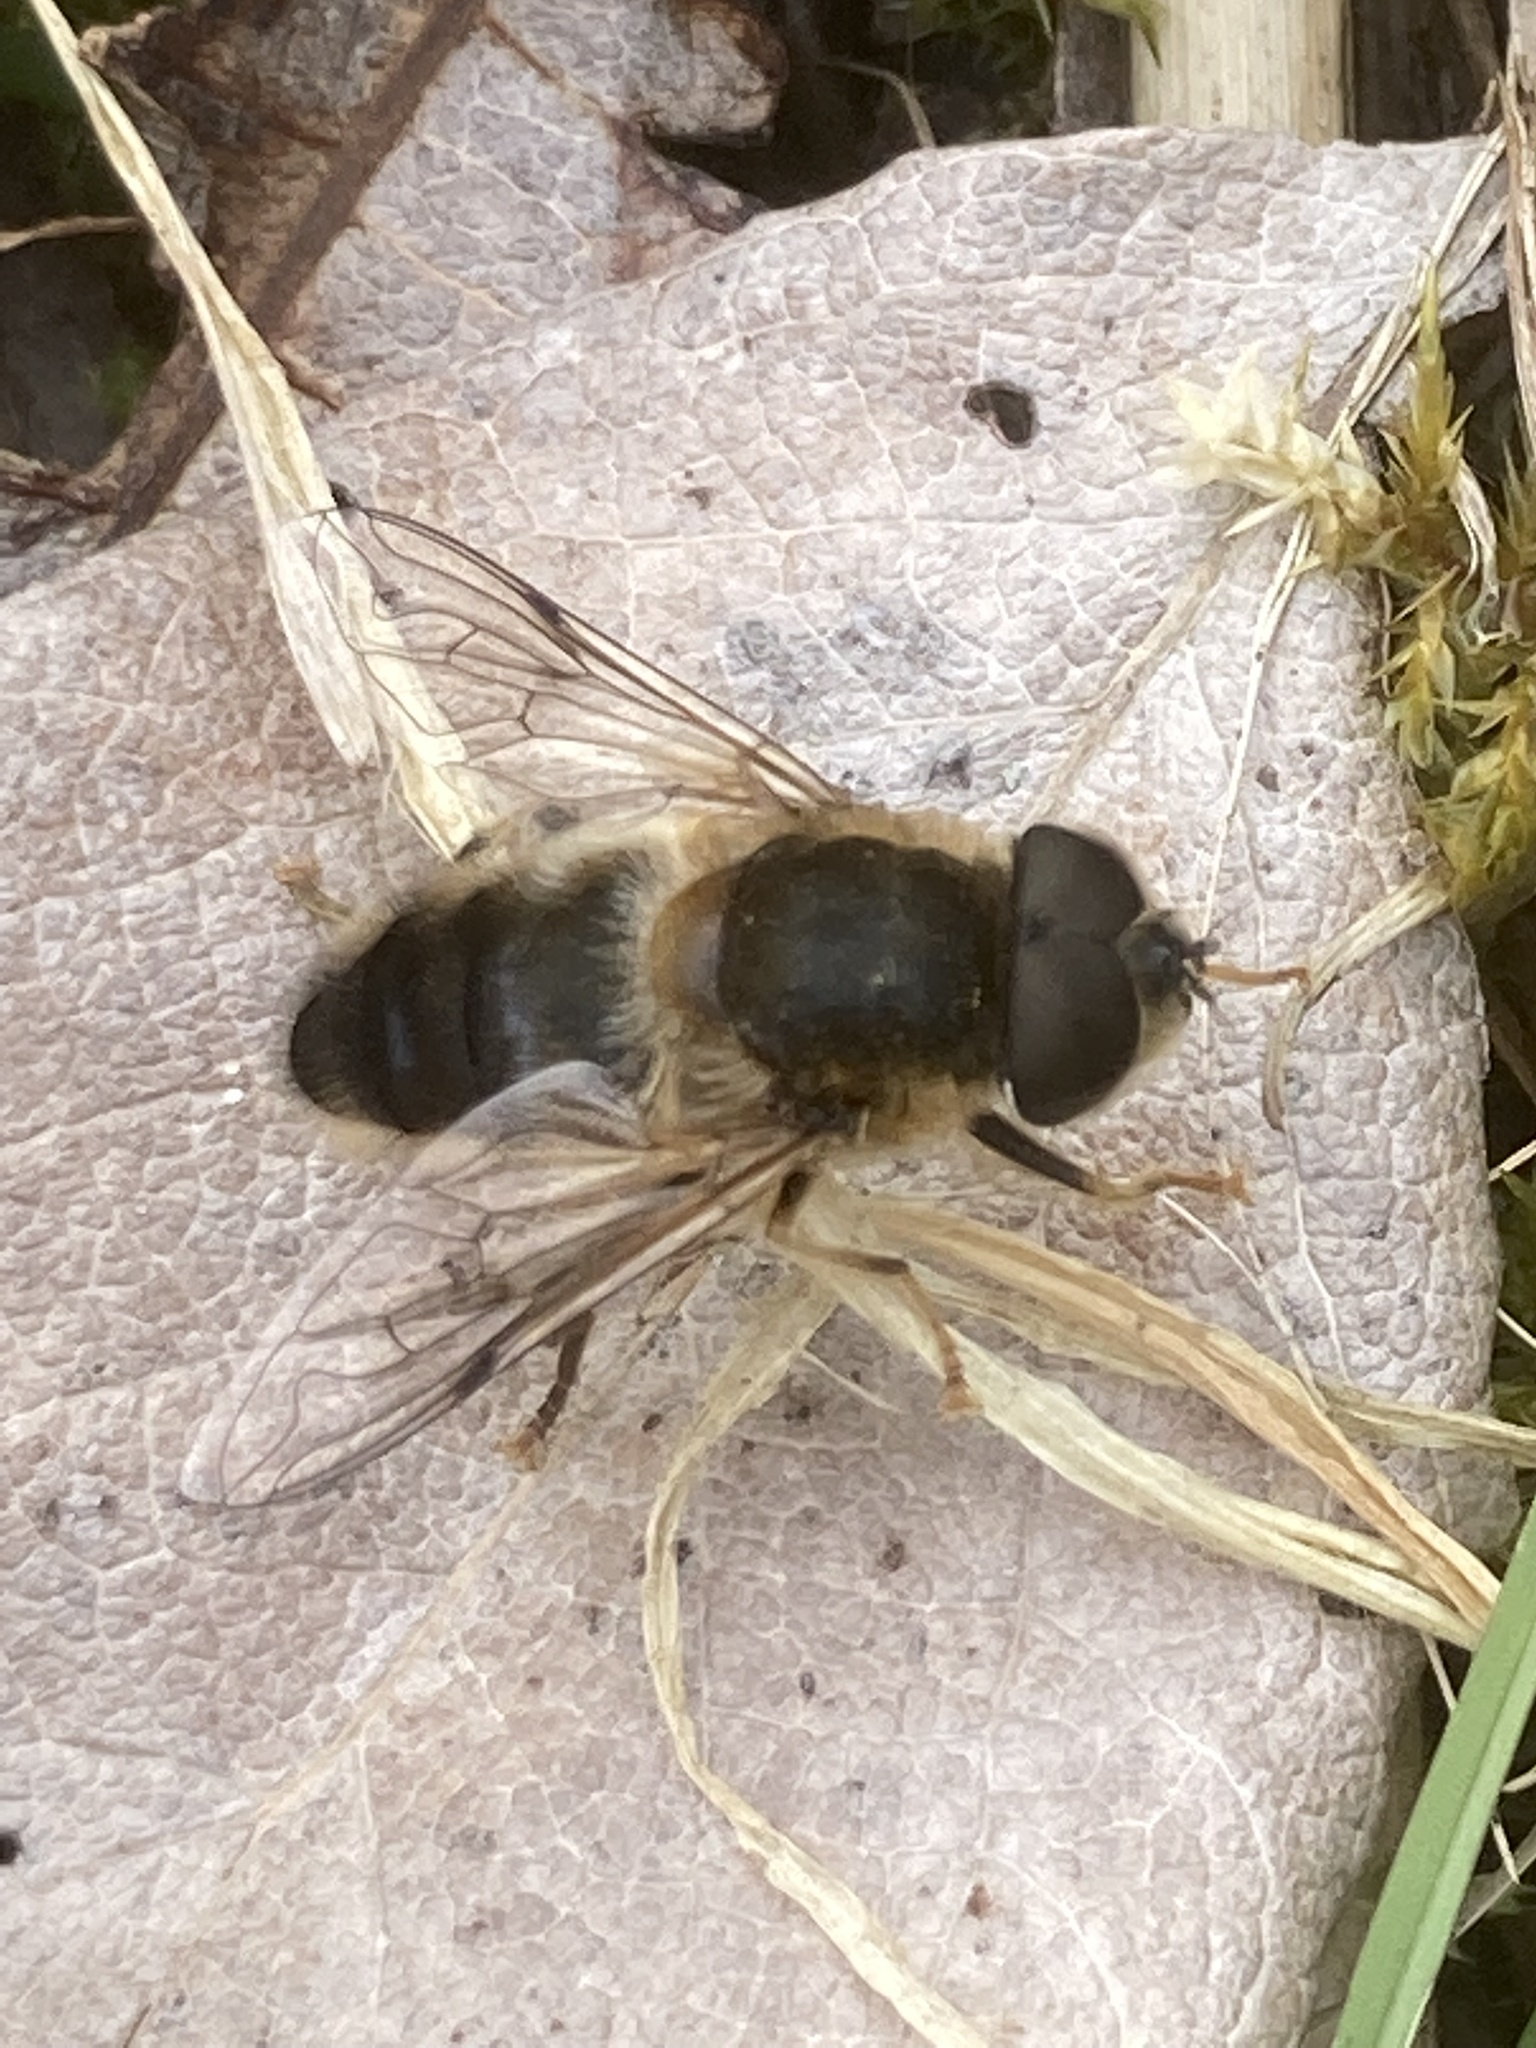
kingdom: Animalia
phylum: Arthropoda
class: Insecta
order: Diptera
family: Syrphidae
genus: Eristalis
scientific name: Eristalis pertinax
